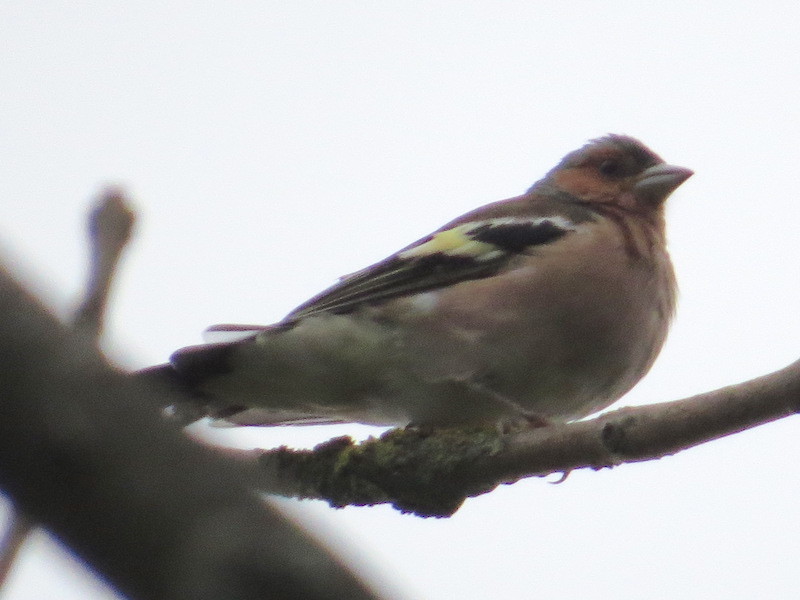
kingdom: Animalia
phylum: Chordata
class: Aves
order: Passeriformes
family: Fringillidae
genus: Fringilla
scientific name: Fringilla coelebs
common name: Common chaffinch
